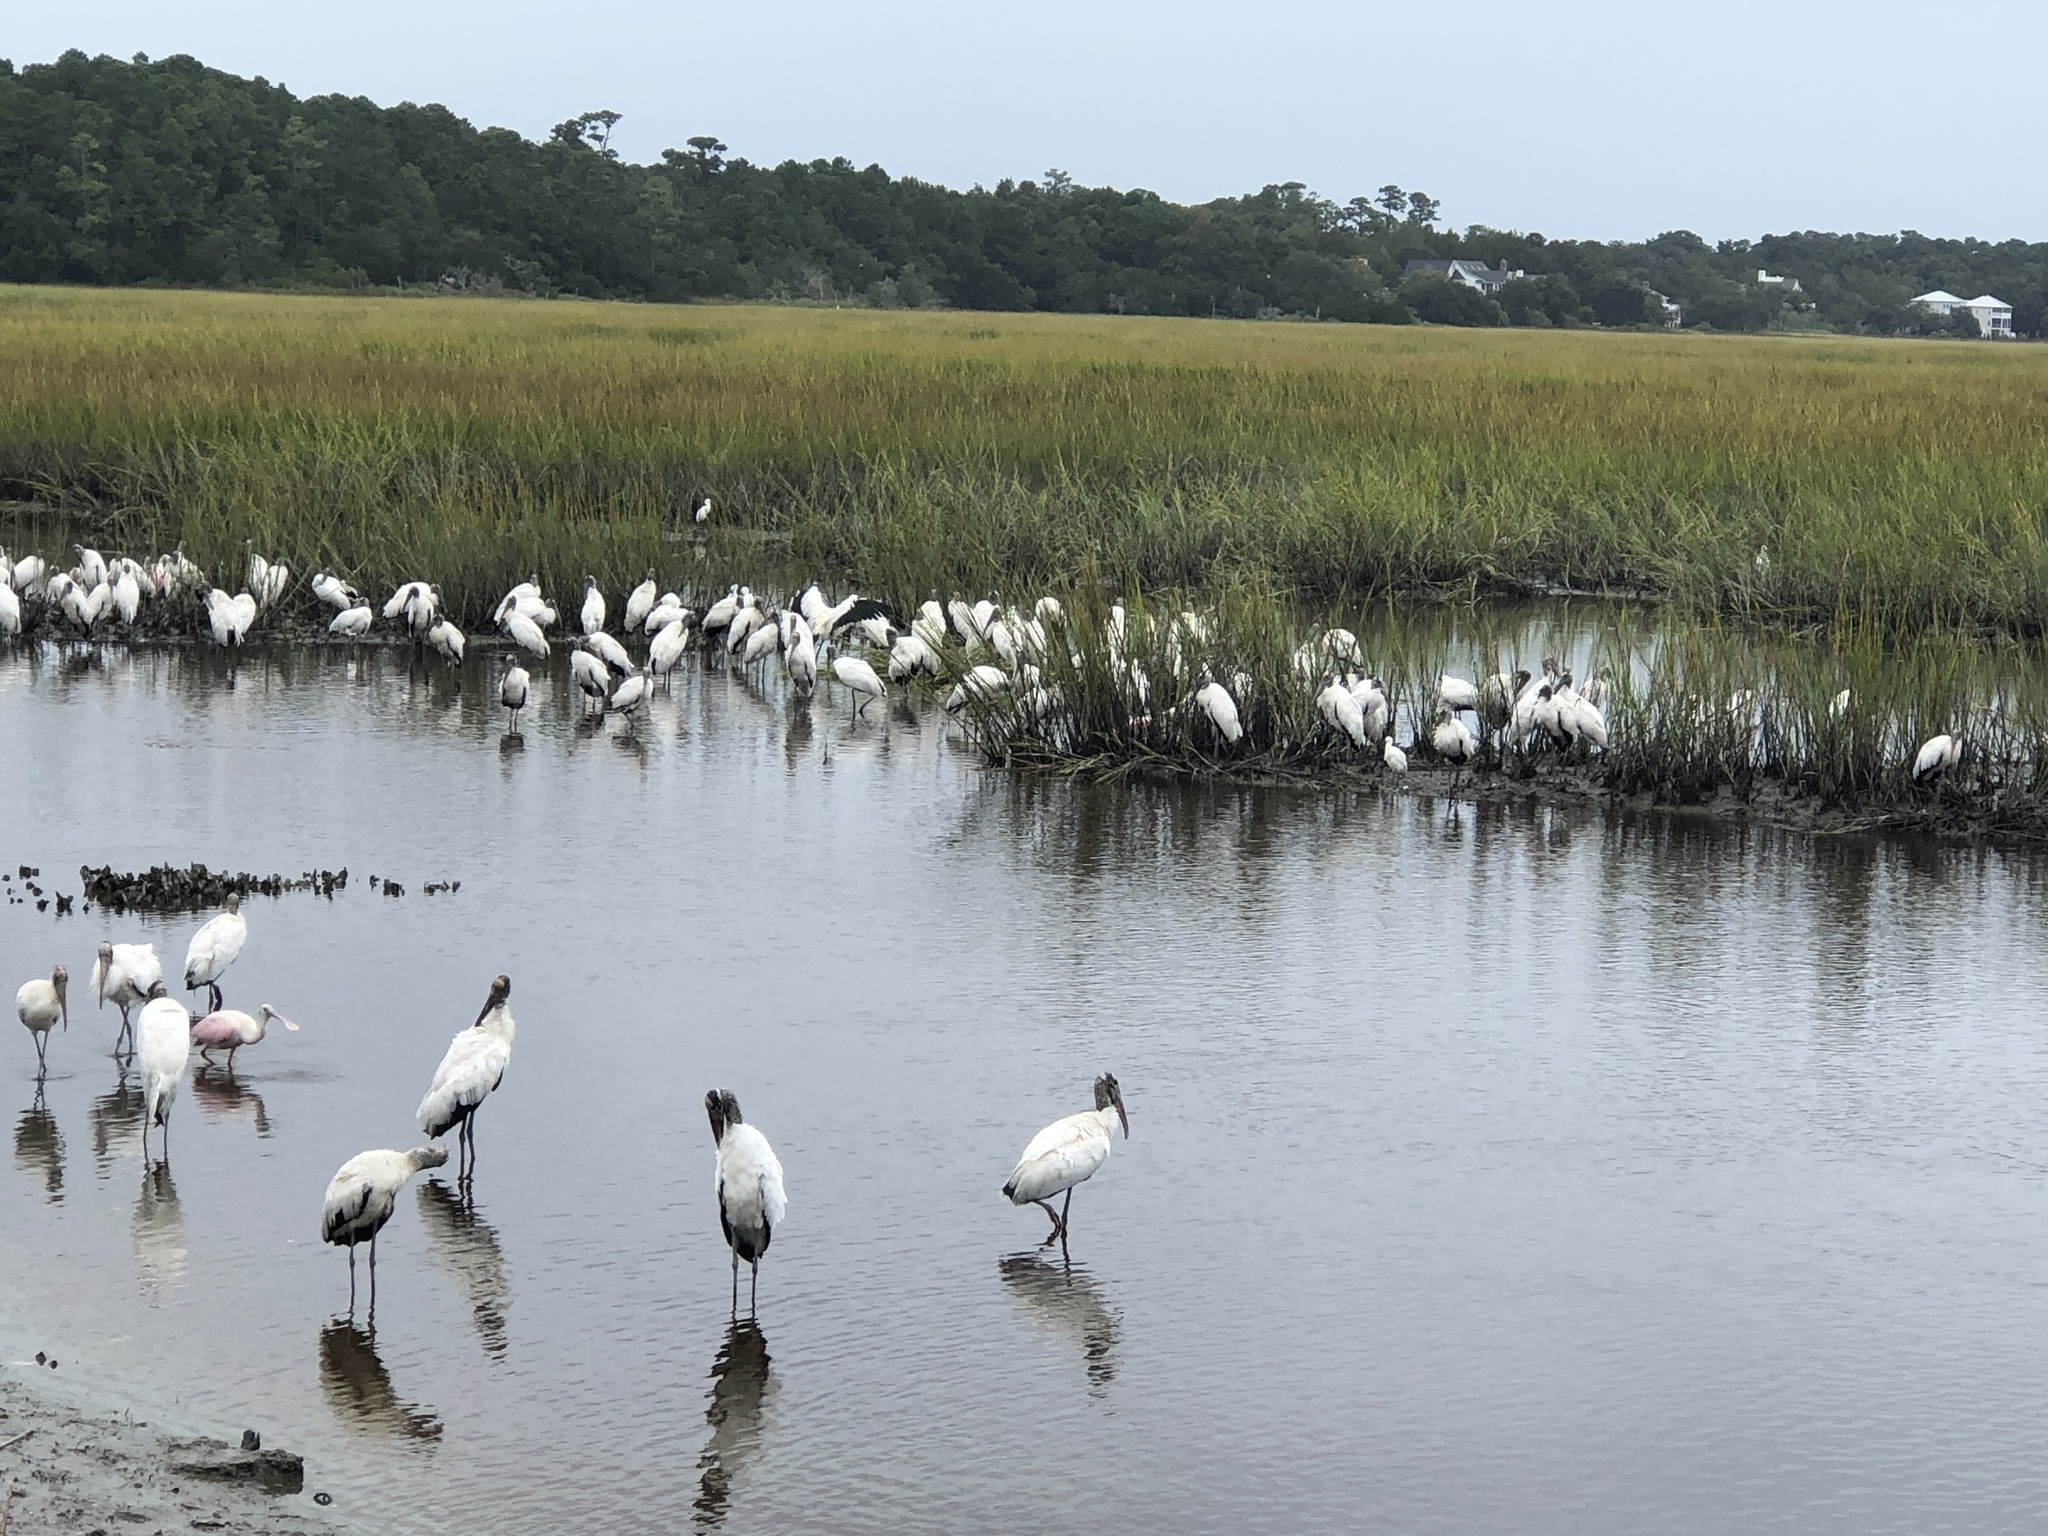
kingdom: Animalia
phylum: Chordata
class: Aves
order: Ciconiiformes
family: Ciconiidae
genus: Mycteria
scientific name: Mycteria americana
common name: Wood stork
